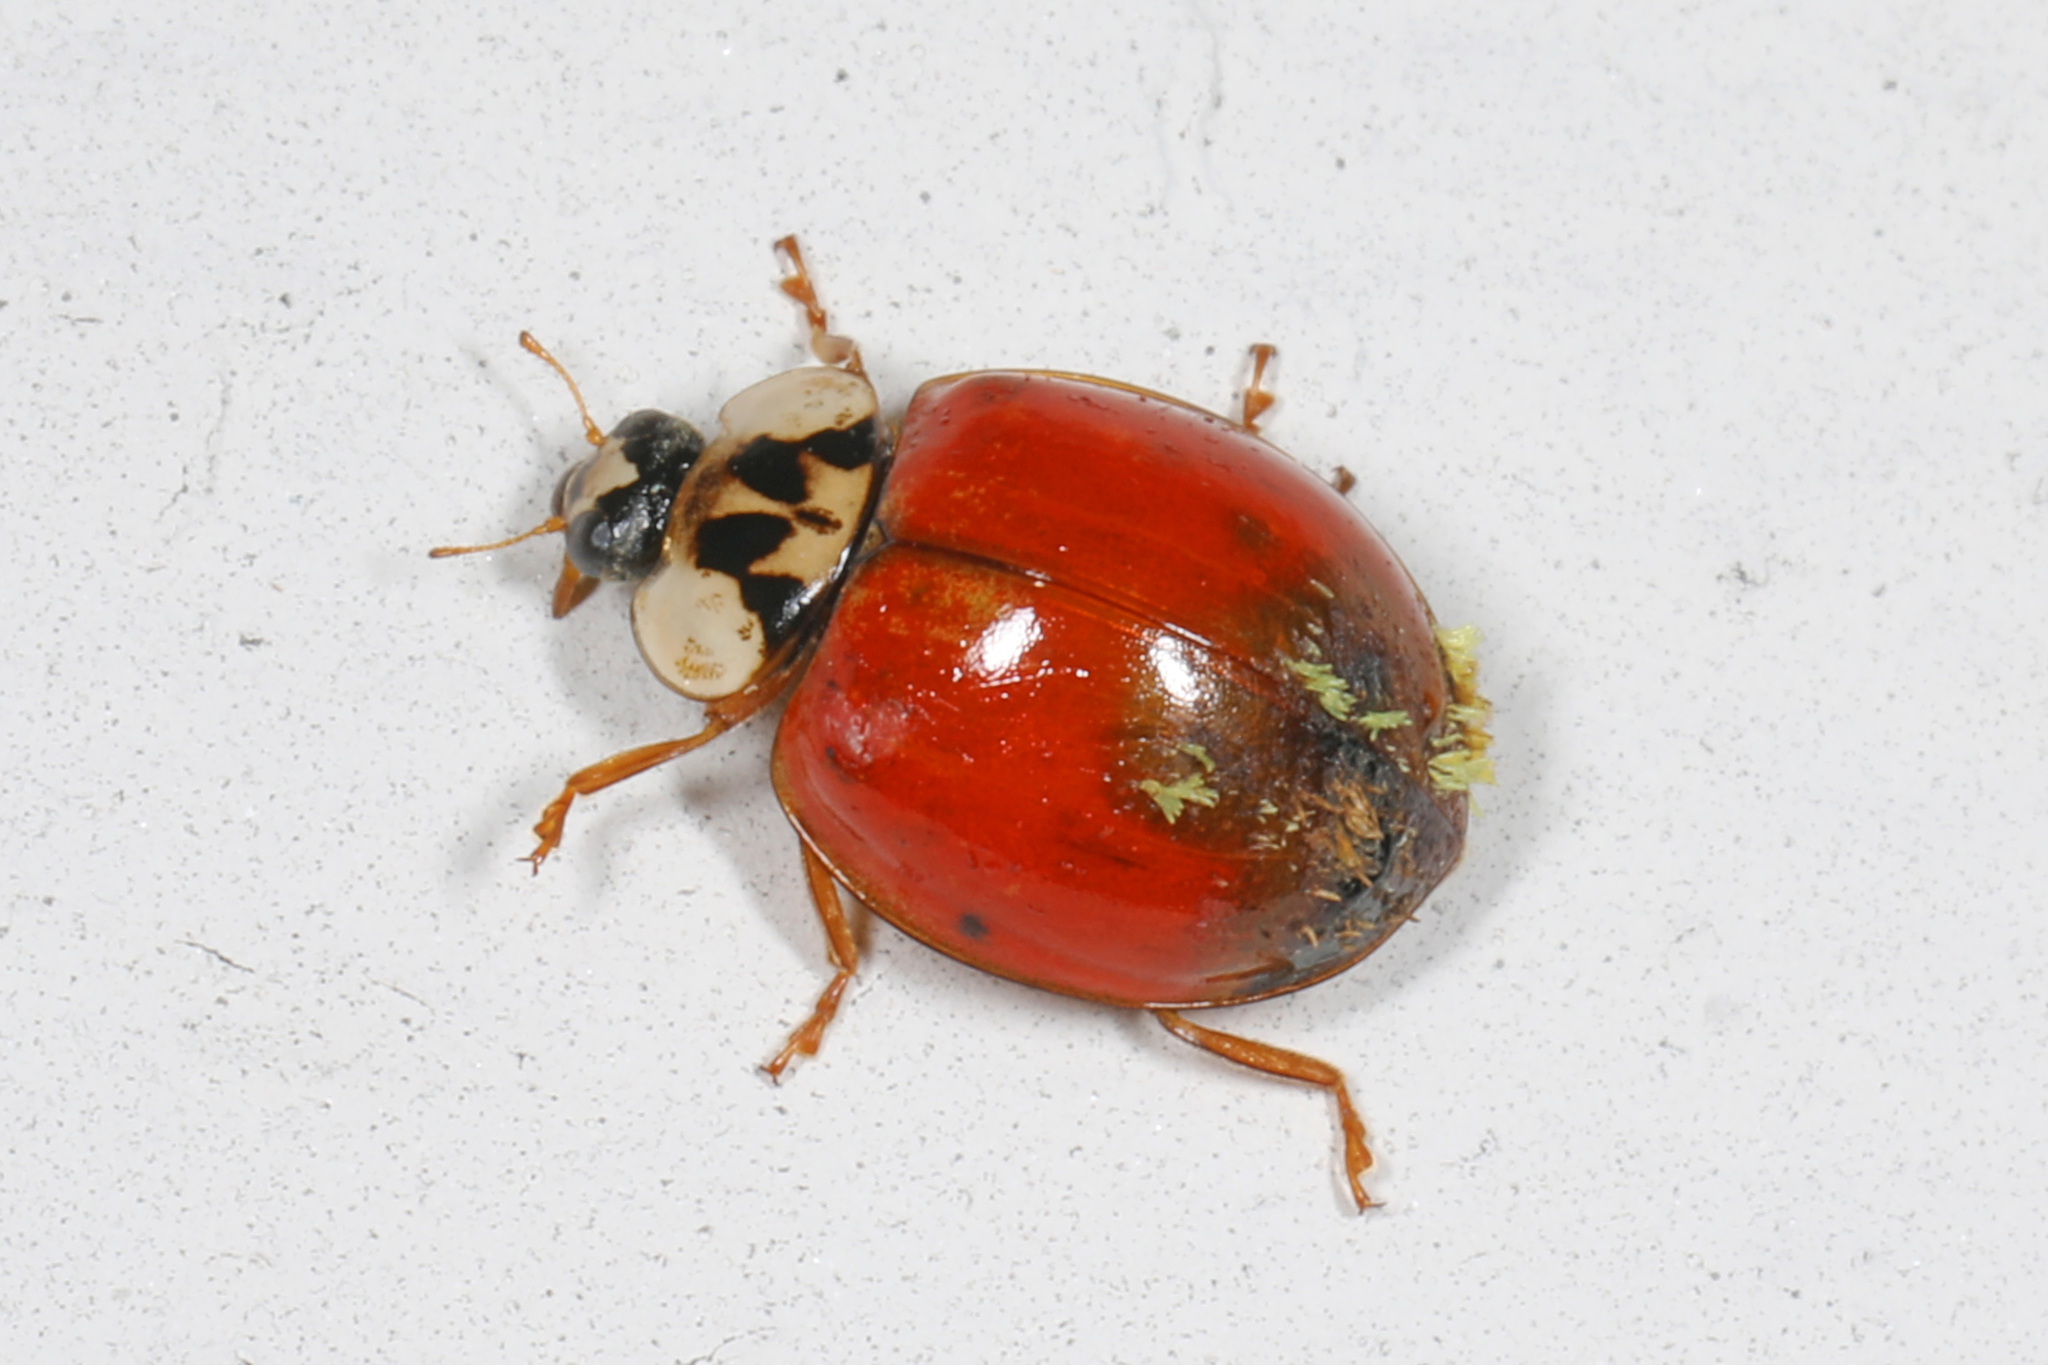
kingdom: Fungi
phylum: Ascomycota
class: Laboulbeniomycetes
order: Laboulbeniales
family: Laboulbeniaceae
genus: Hesperomyces
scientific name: Hesperomyces harmoniae
